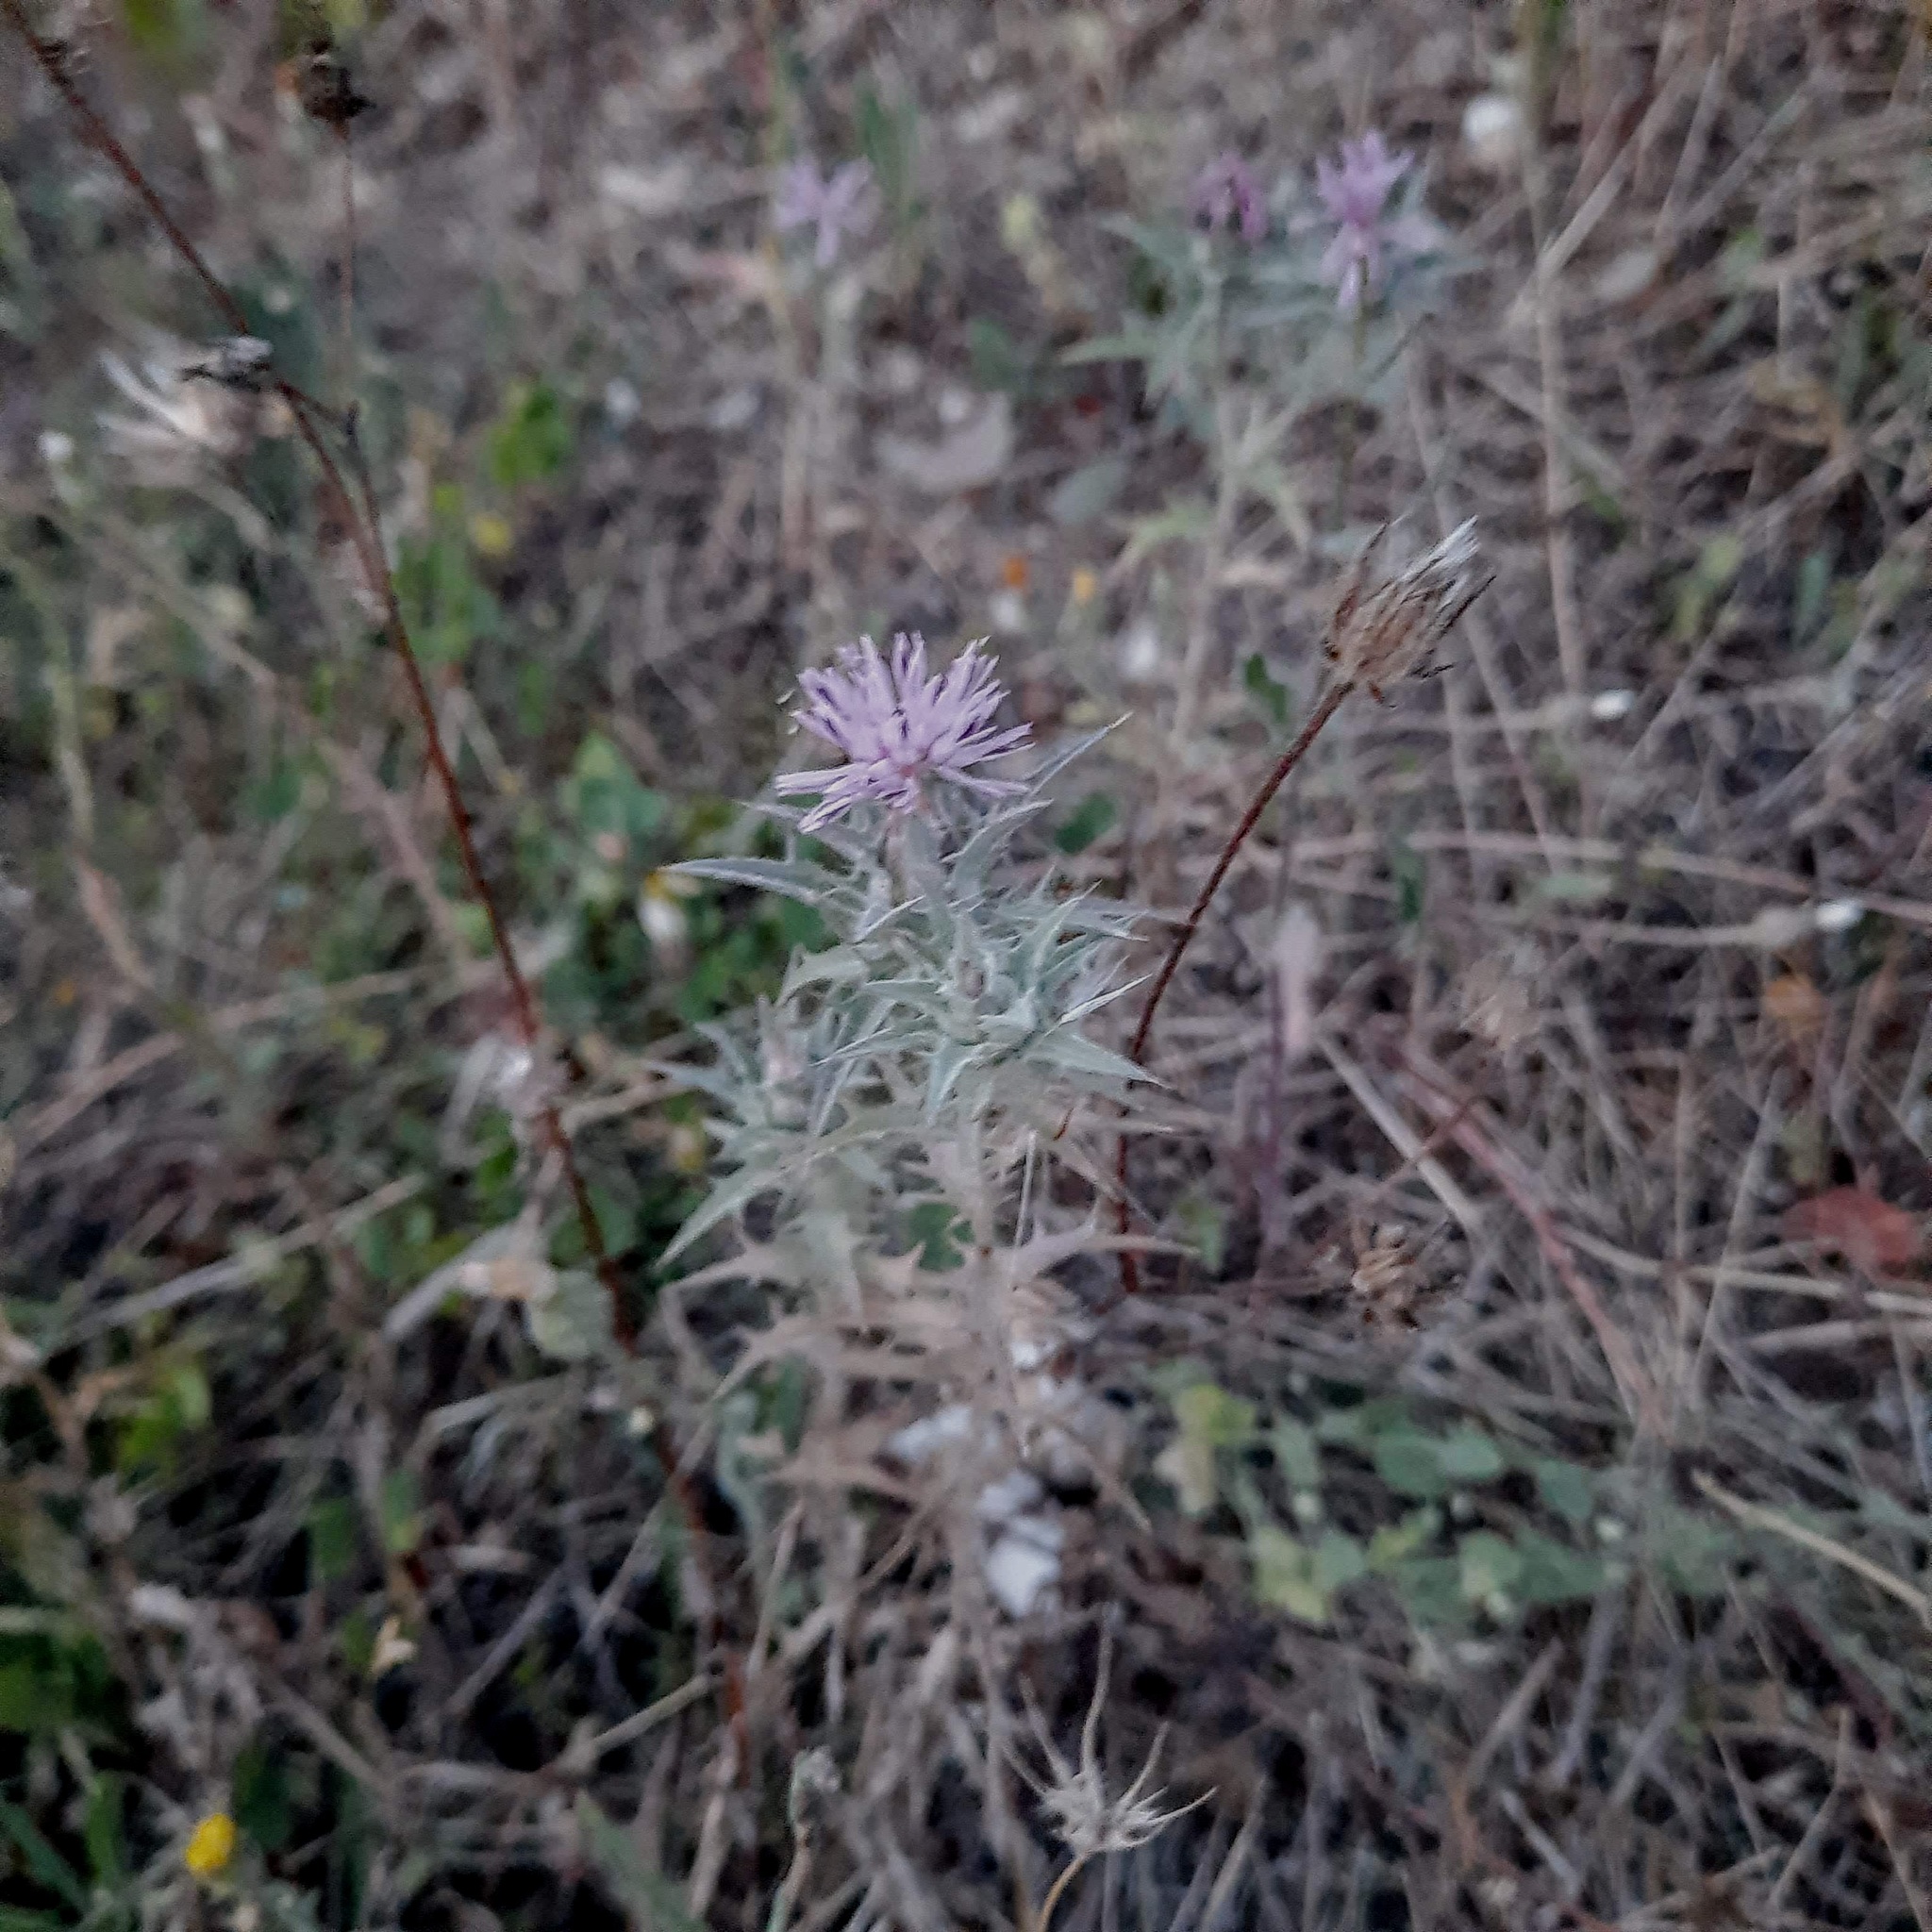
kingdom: Plantae
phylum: Tracheophyta
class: Magnoliopsida
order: Asterales
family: Asteraceae
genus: Carthamus
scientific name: Carthamus glaucus
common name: Mediterranean thistle
